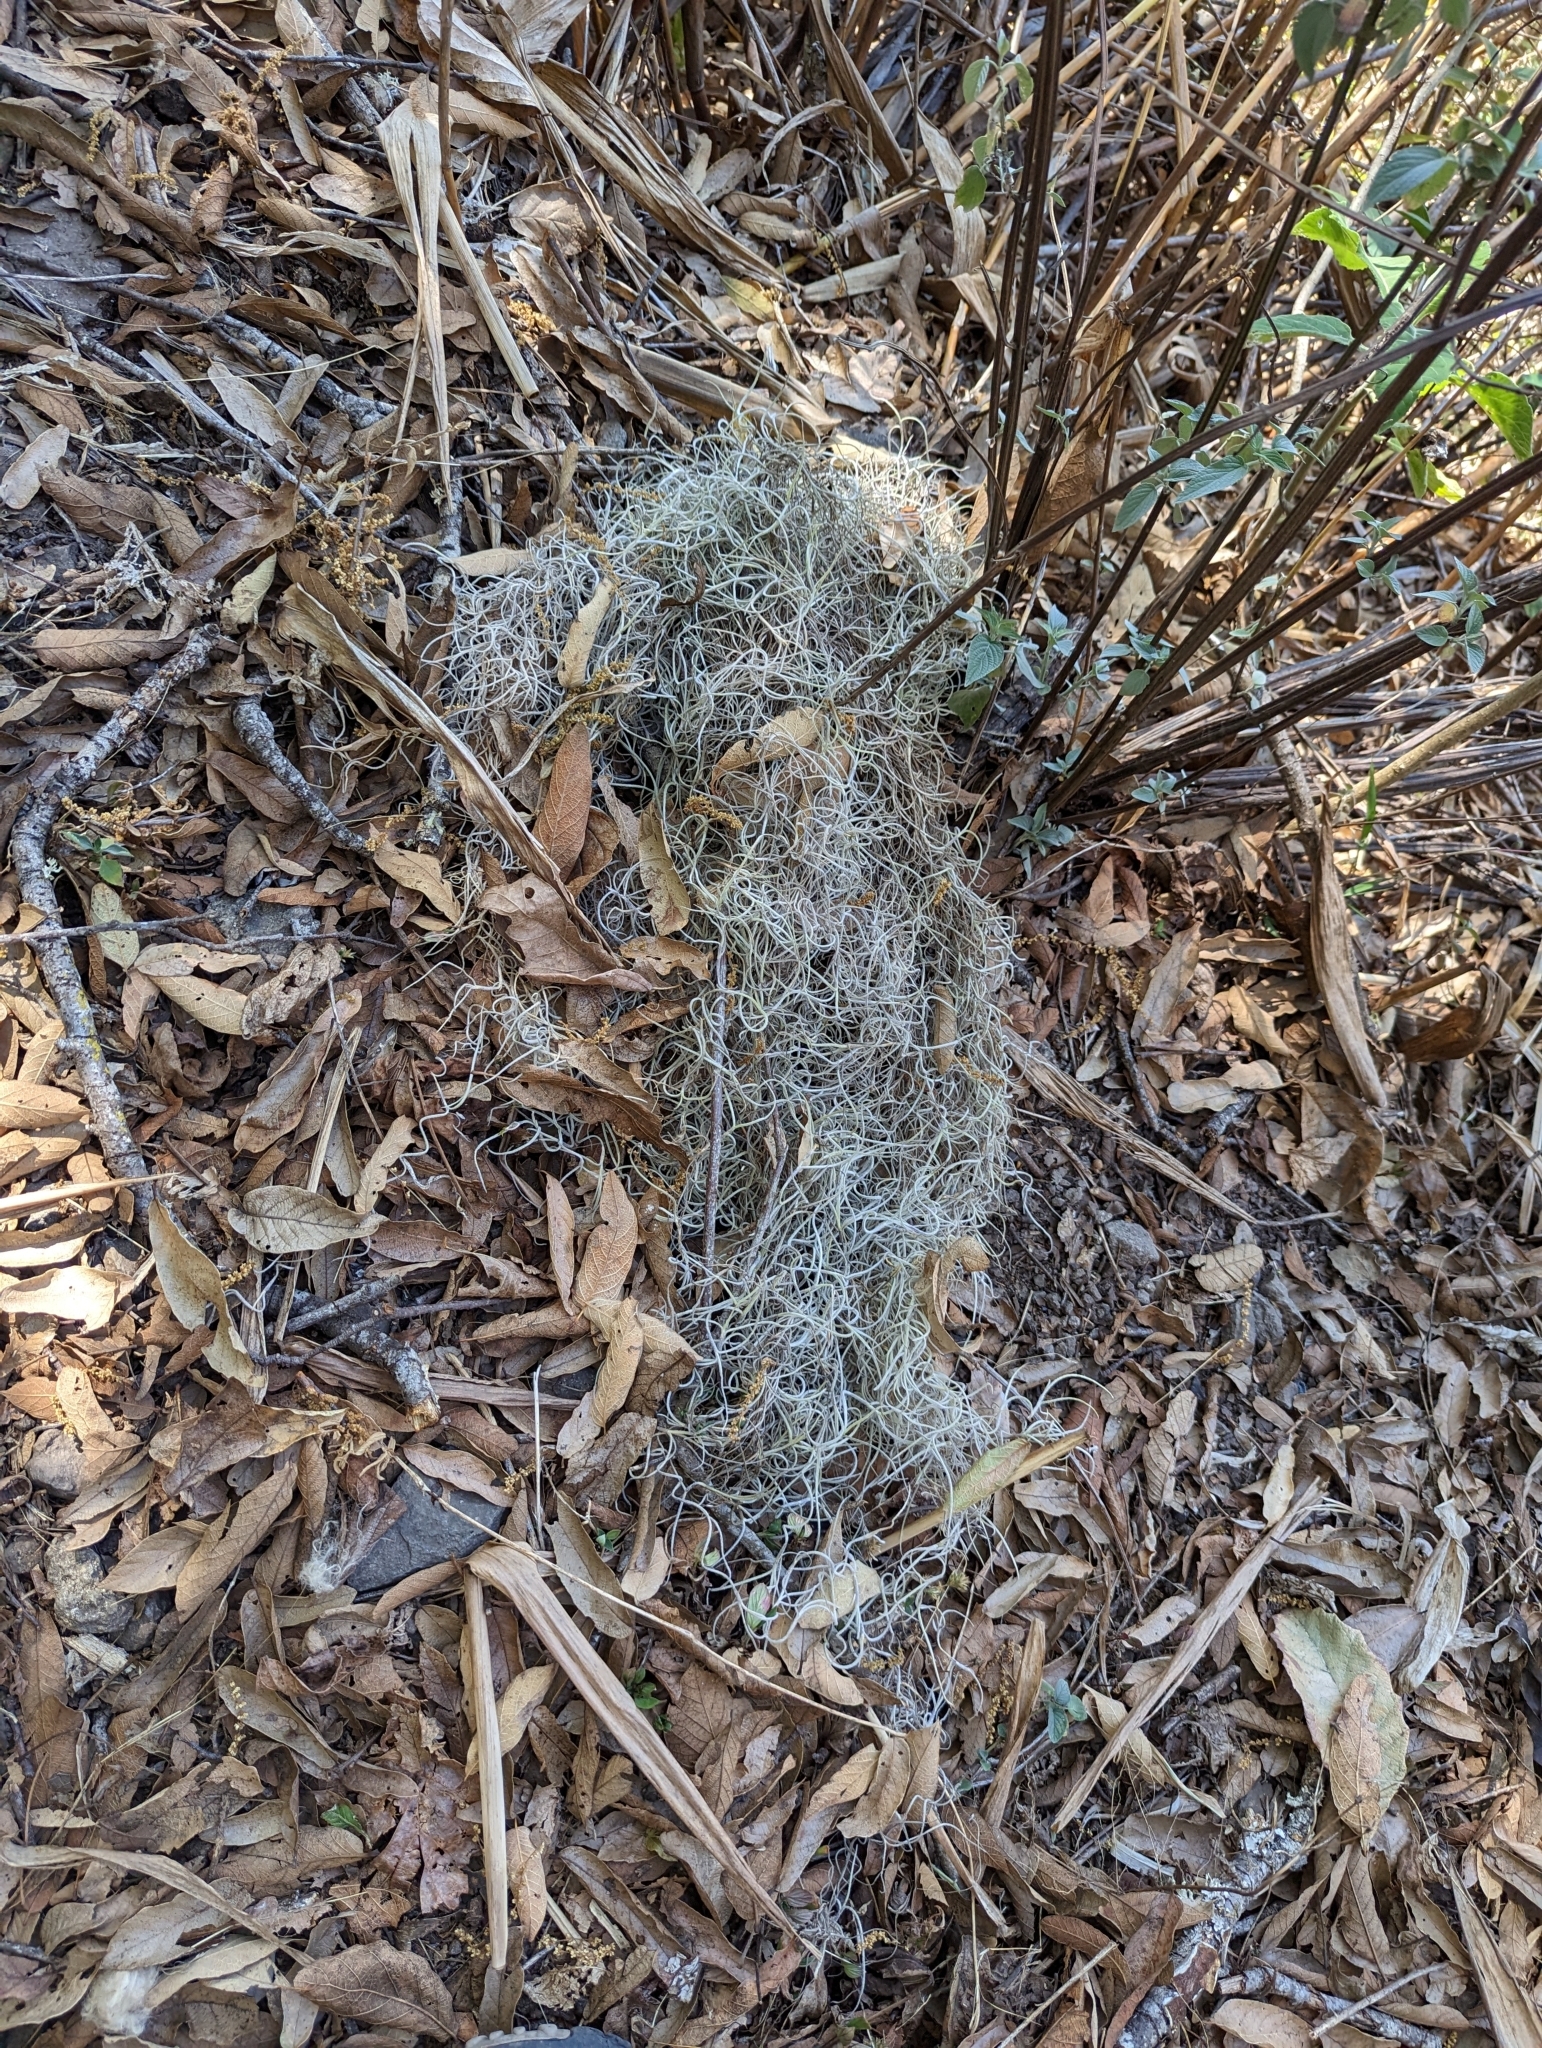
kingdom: Plantae
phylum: Tracheophyta
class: Liliopsida
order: Poales
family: Bromeliaceae
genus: Tillandsia
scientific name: Tillandsia usneoides
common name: Spanish moss
